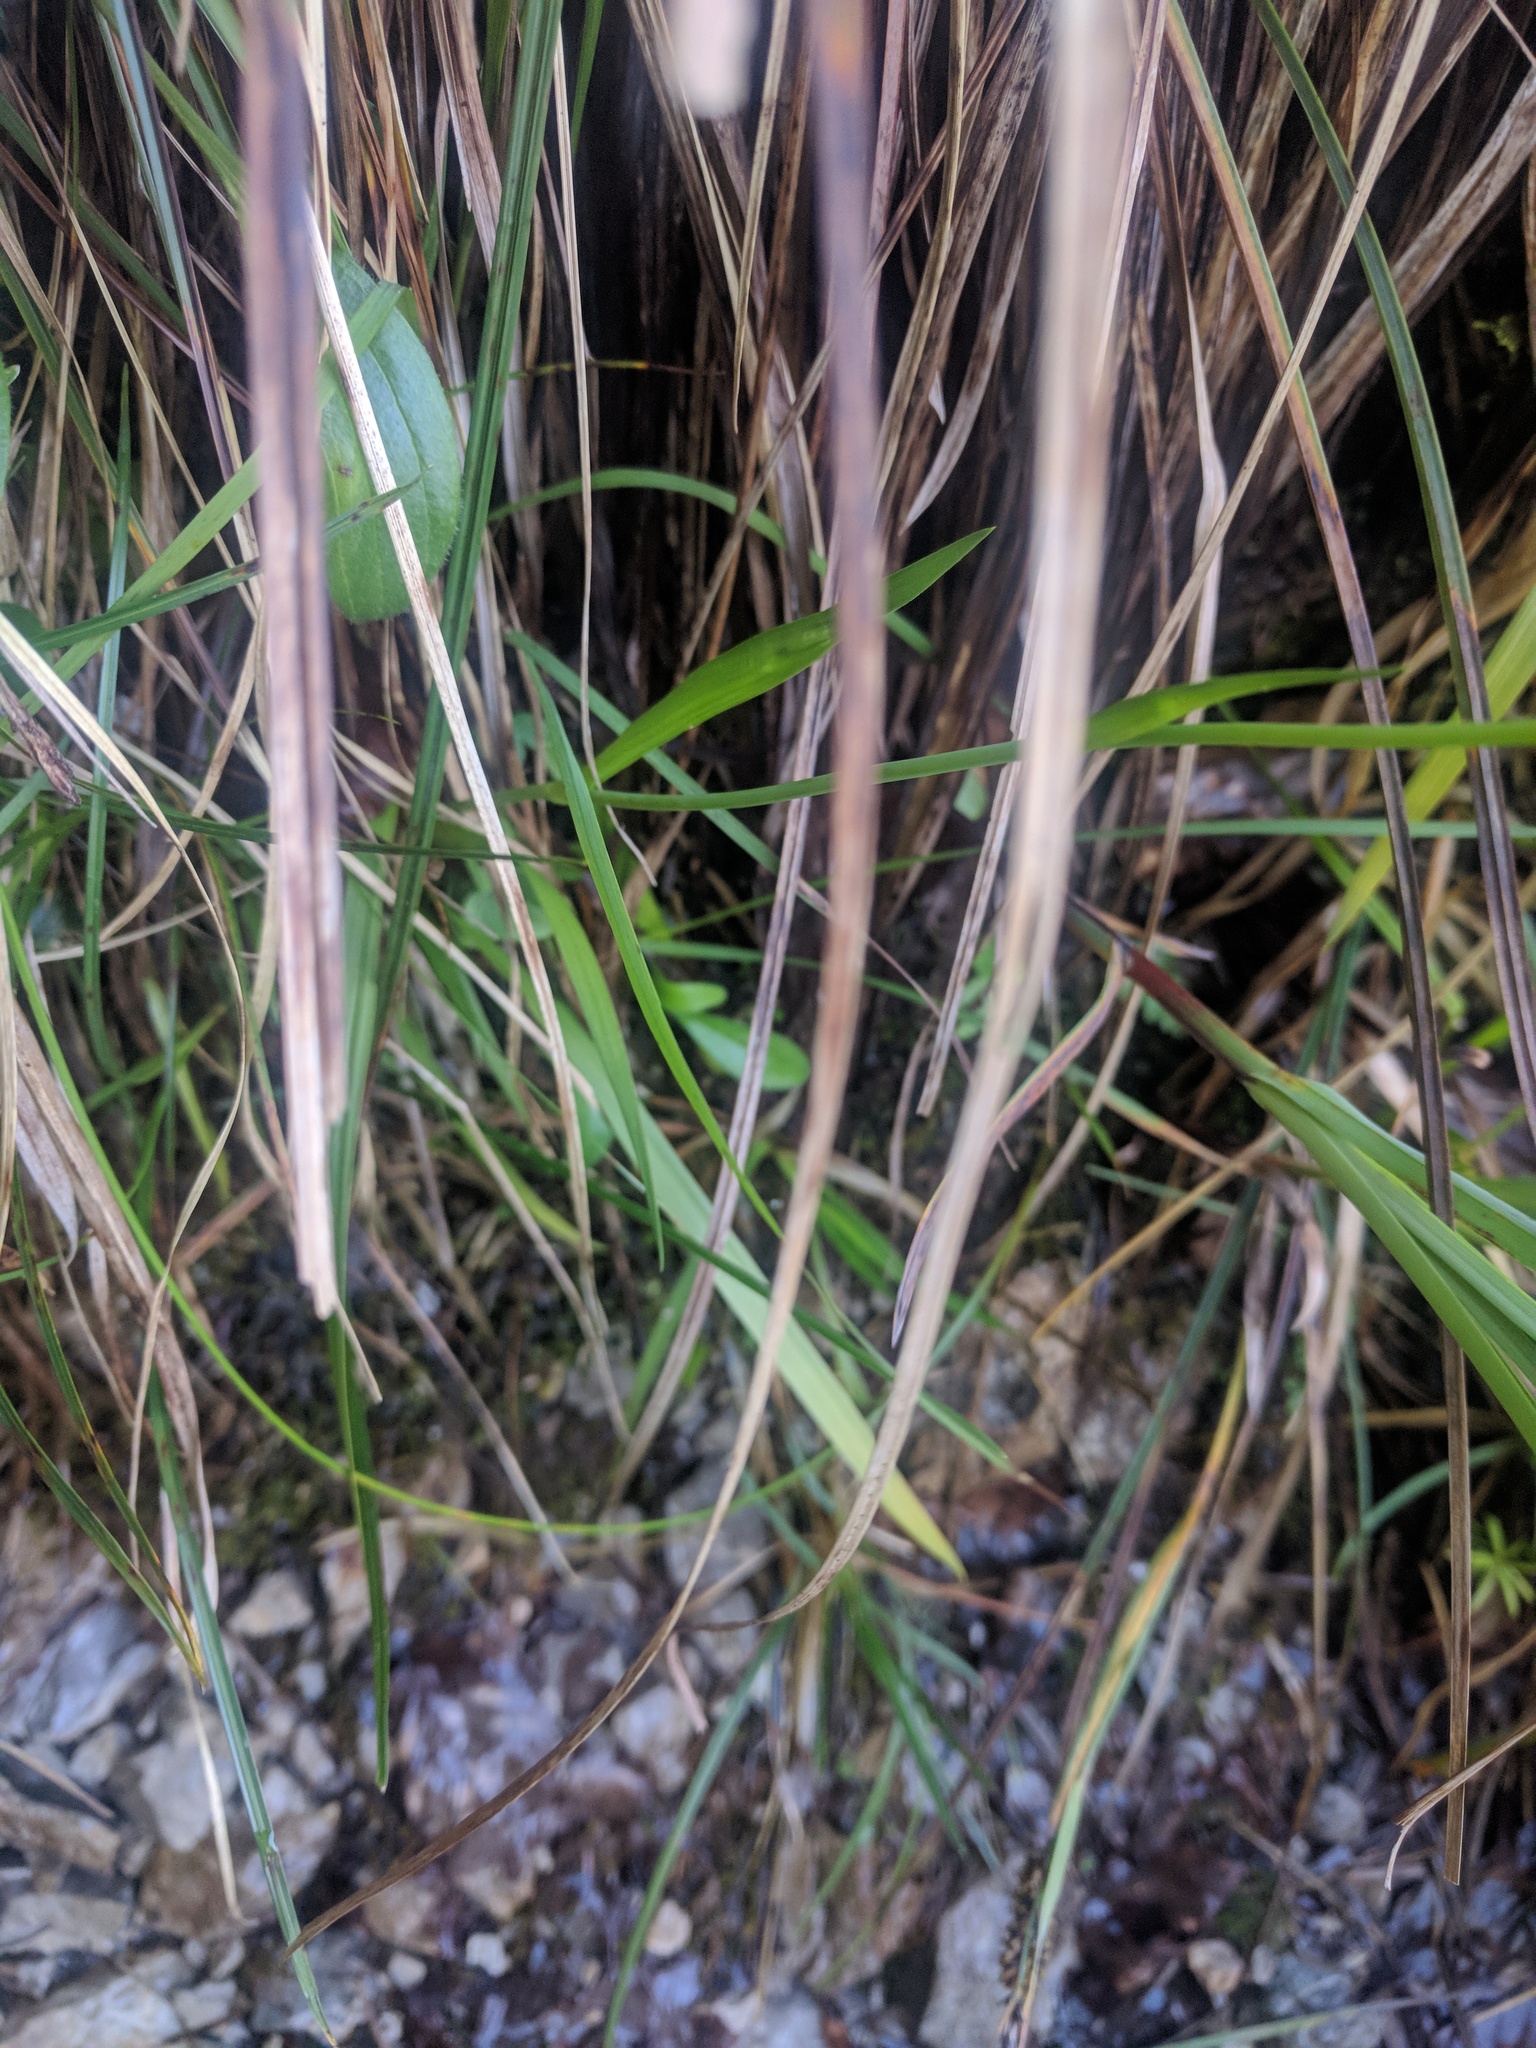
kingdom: Plantae
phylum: Tracheophyta
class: Liliopsida
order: Alismatales
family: Tofieldiaceae
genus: Tofieldia
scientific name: Tofieldia calyculata
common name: German-asphodel
